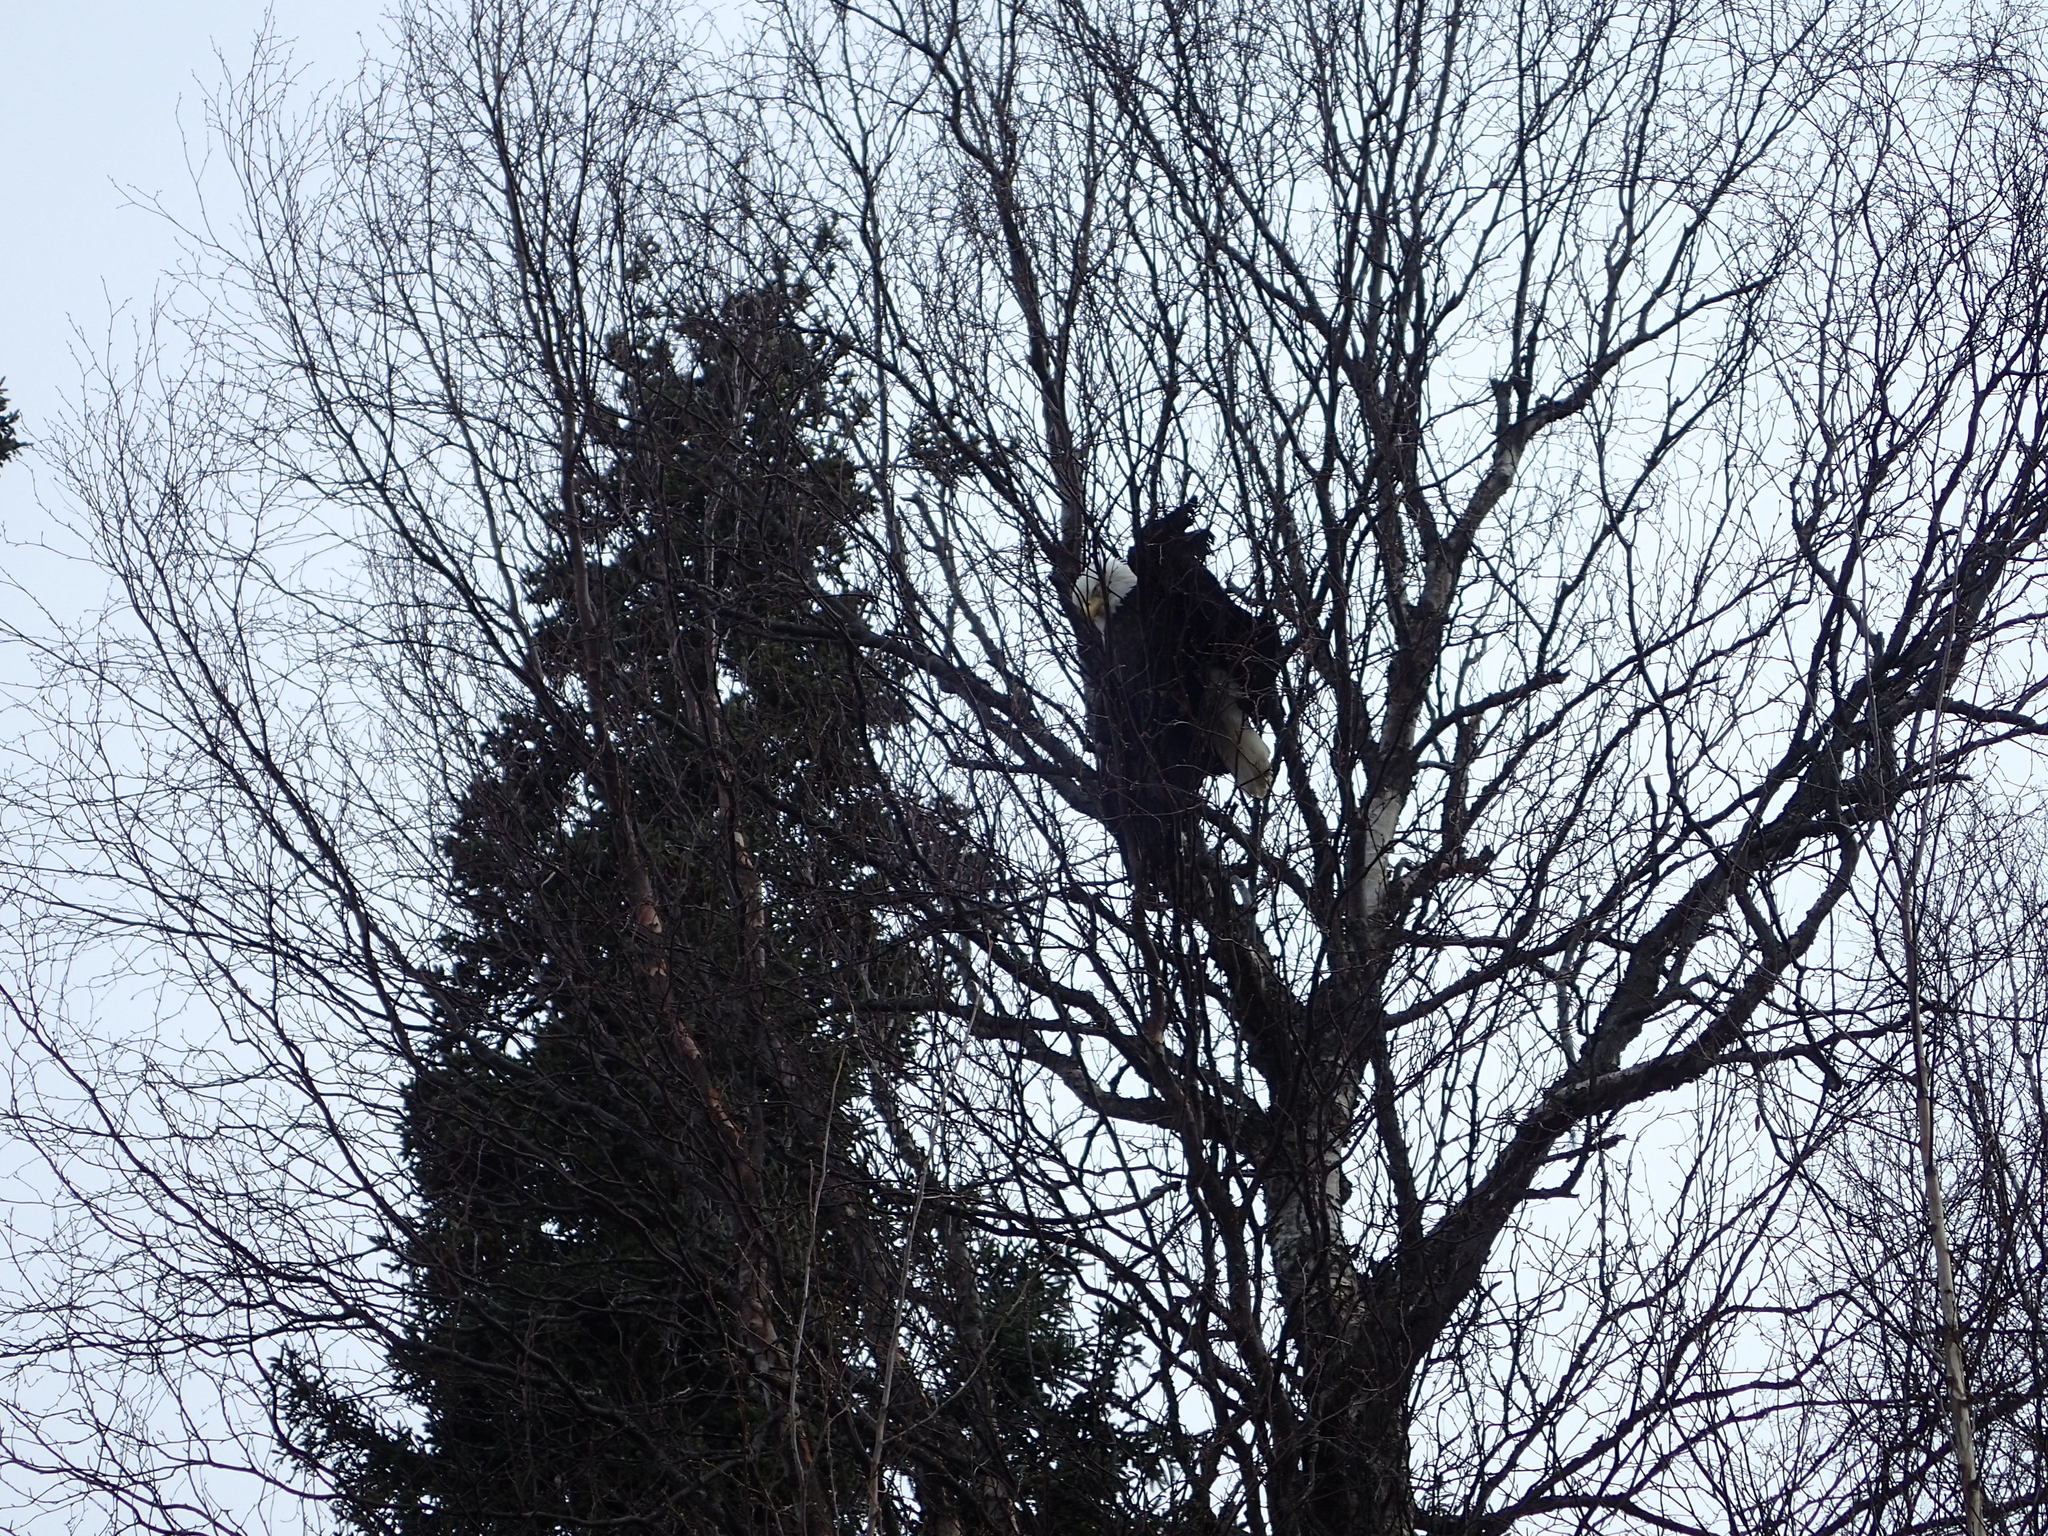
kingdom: Animalia
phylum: Chordata
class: Aves
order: Accipitriformes
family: Accipitridae
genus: Haliaeetus
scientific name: Haliaeetus leucocephalus
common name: Bald eagle
